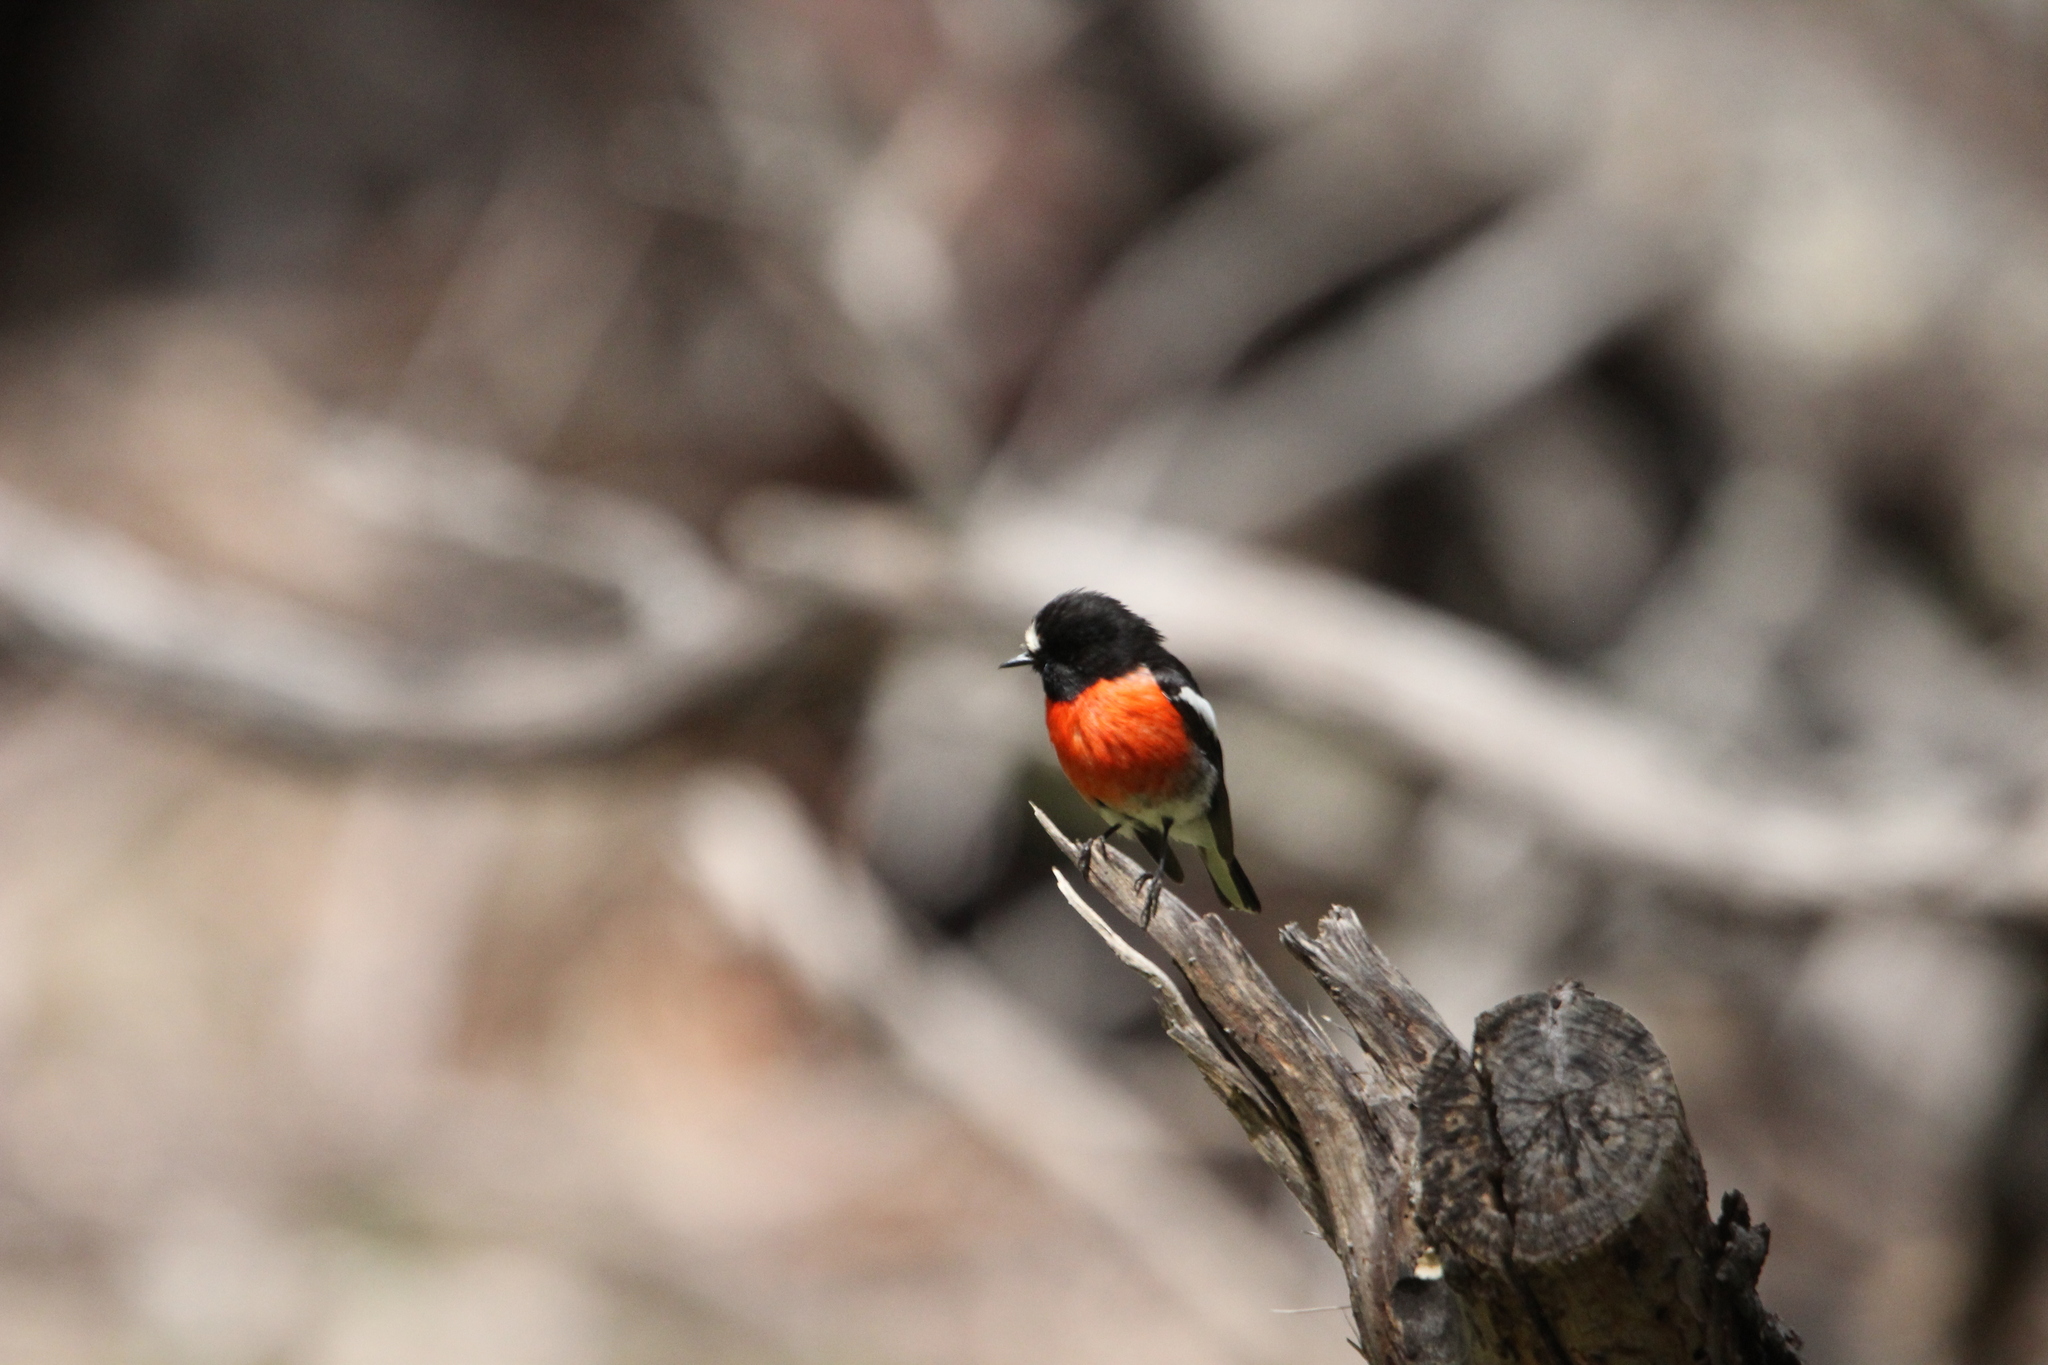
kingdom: Animalia
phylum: Chordata
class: Aves
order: Passeriformes
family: Petroicidae
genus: Petroica
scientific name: Petroica boodang
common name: Scarlet robin
